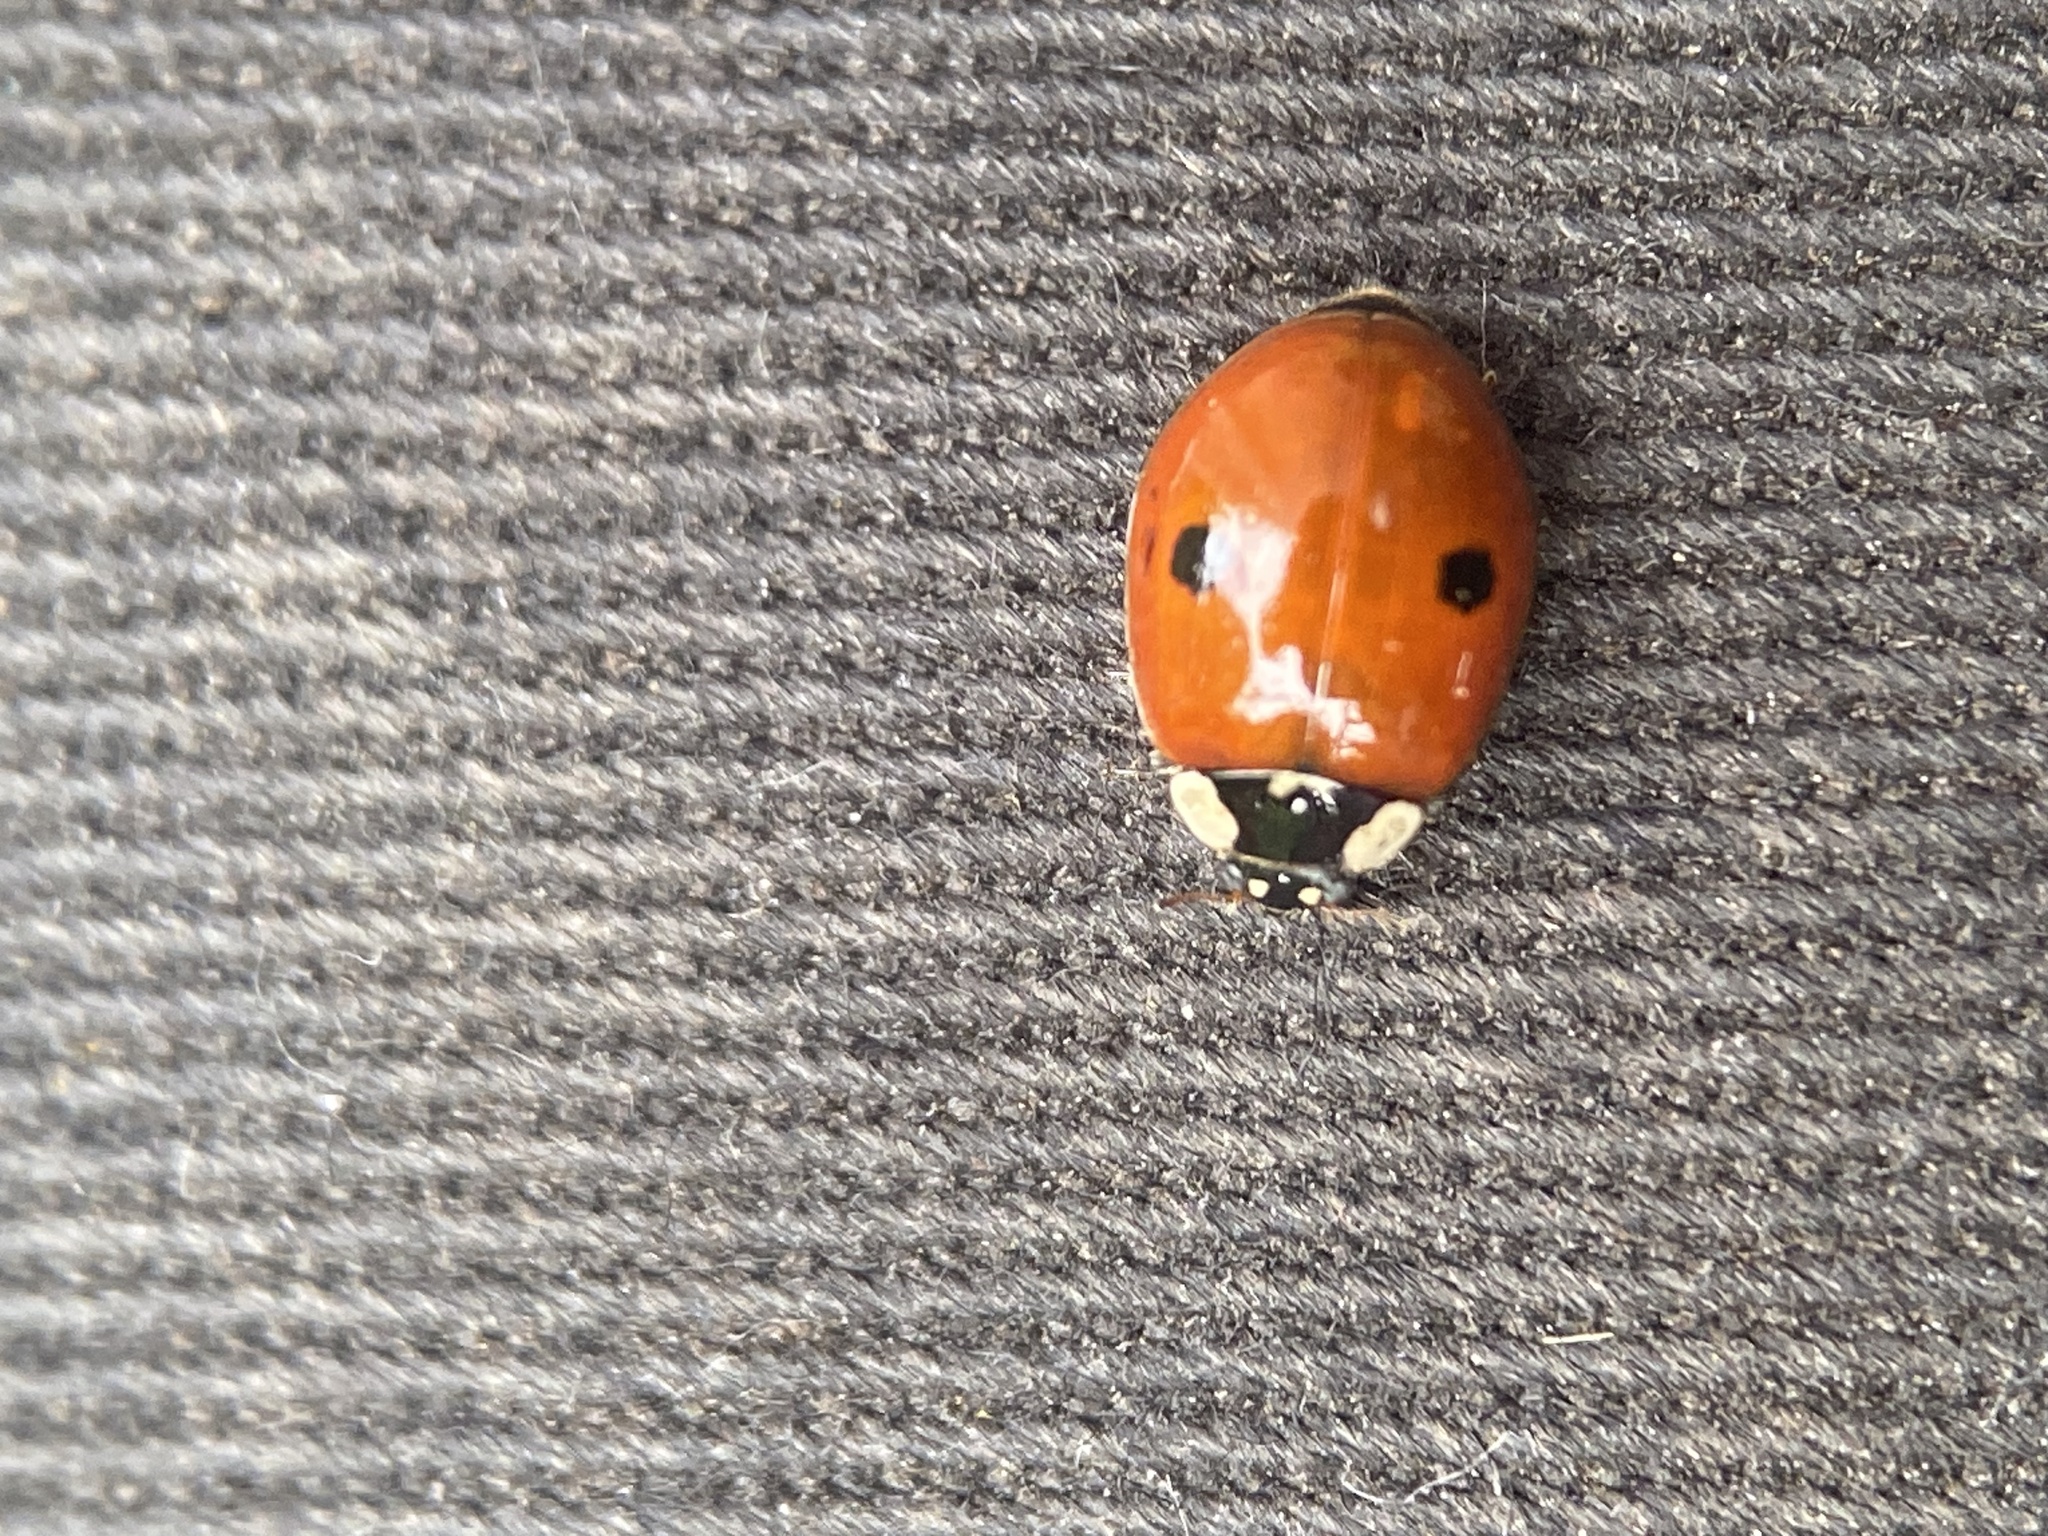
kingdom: Animalia
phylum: Arthropoda
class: Insecta
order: Coleoptera
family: Coccinellidae
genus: Adalia
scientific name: Adalia bipunctata
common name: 2-spot ladybird
